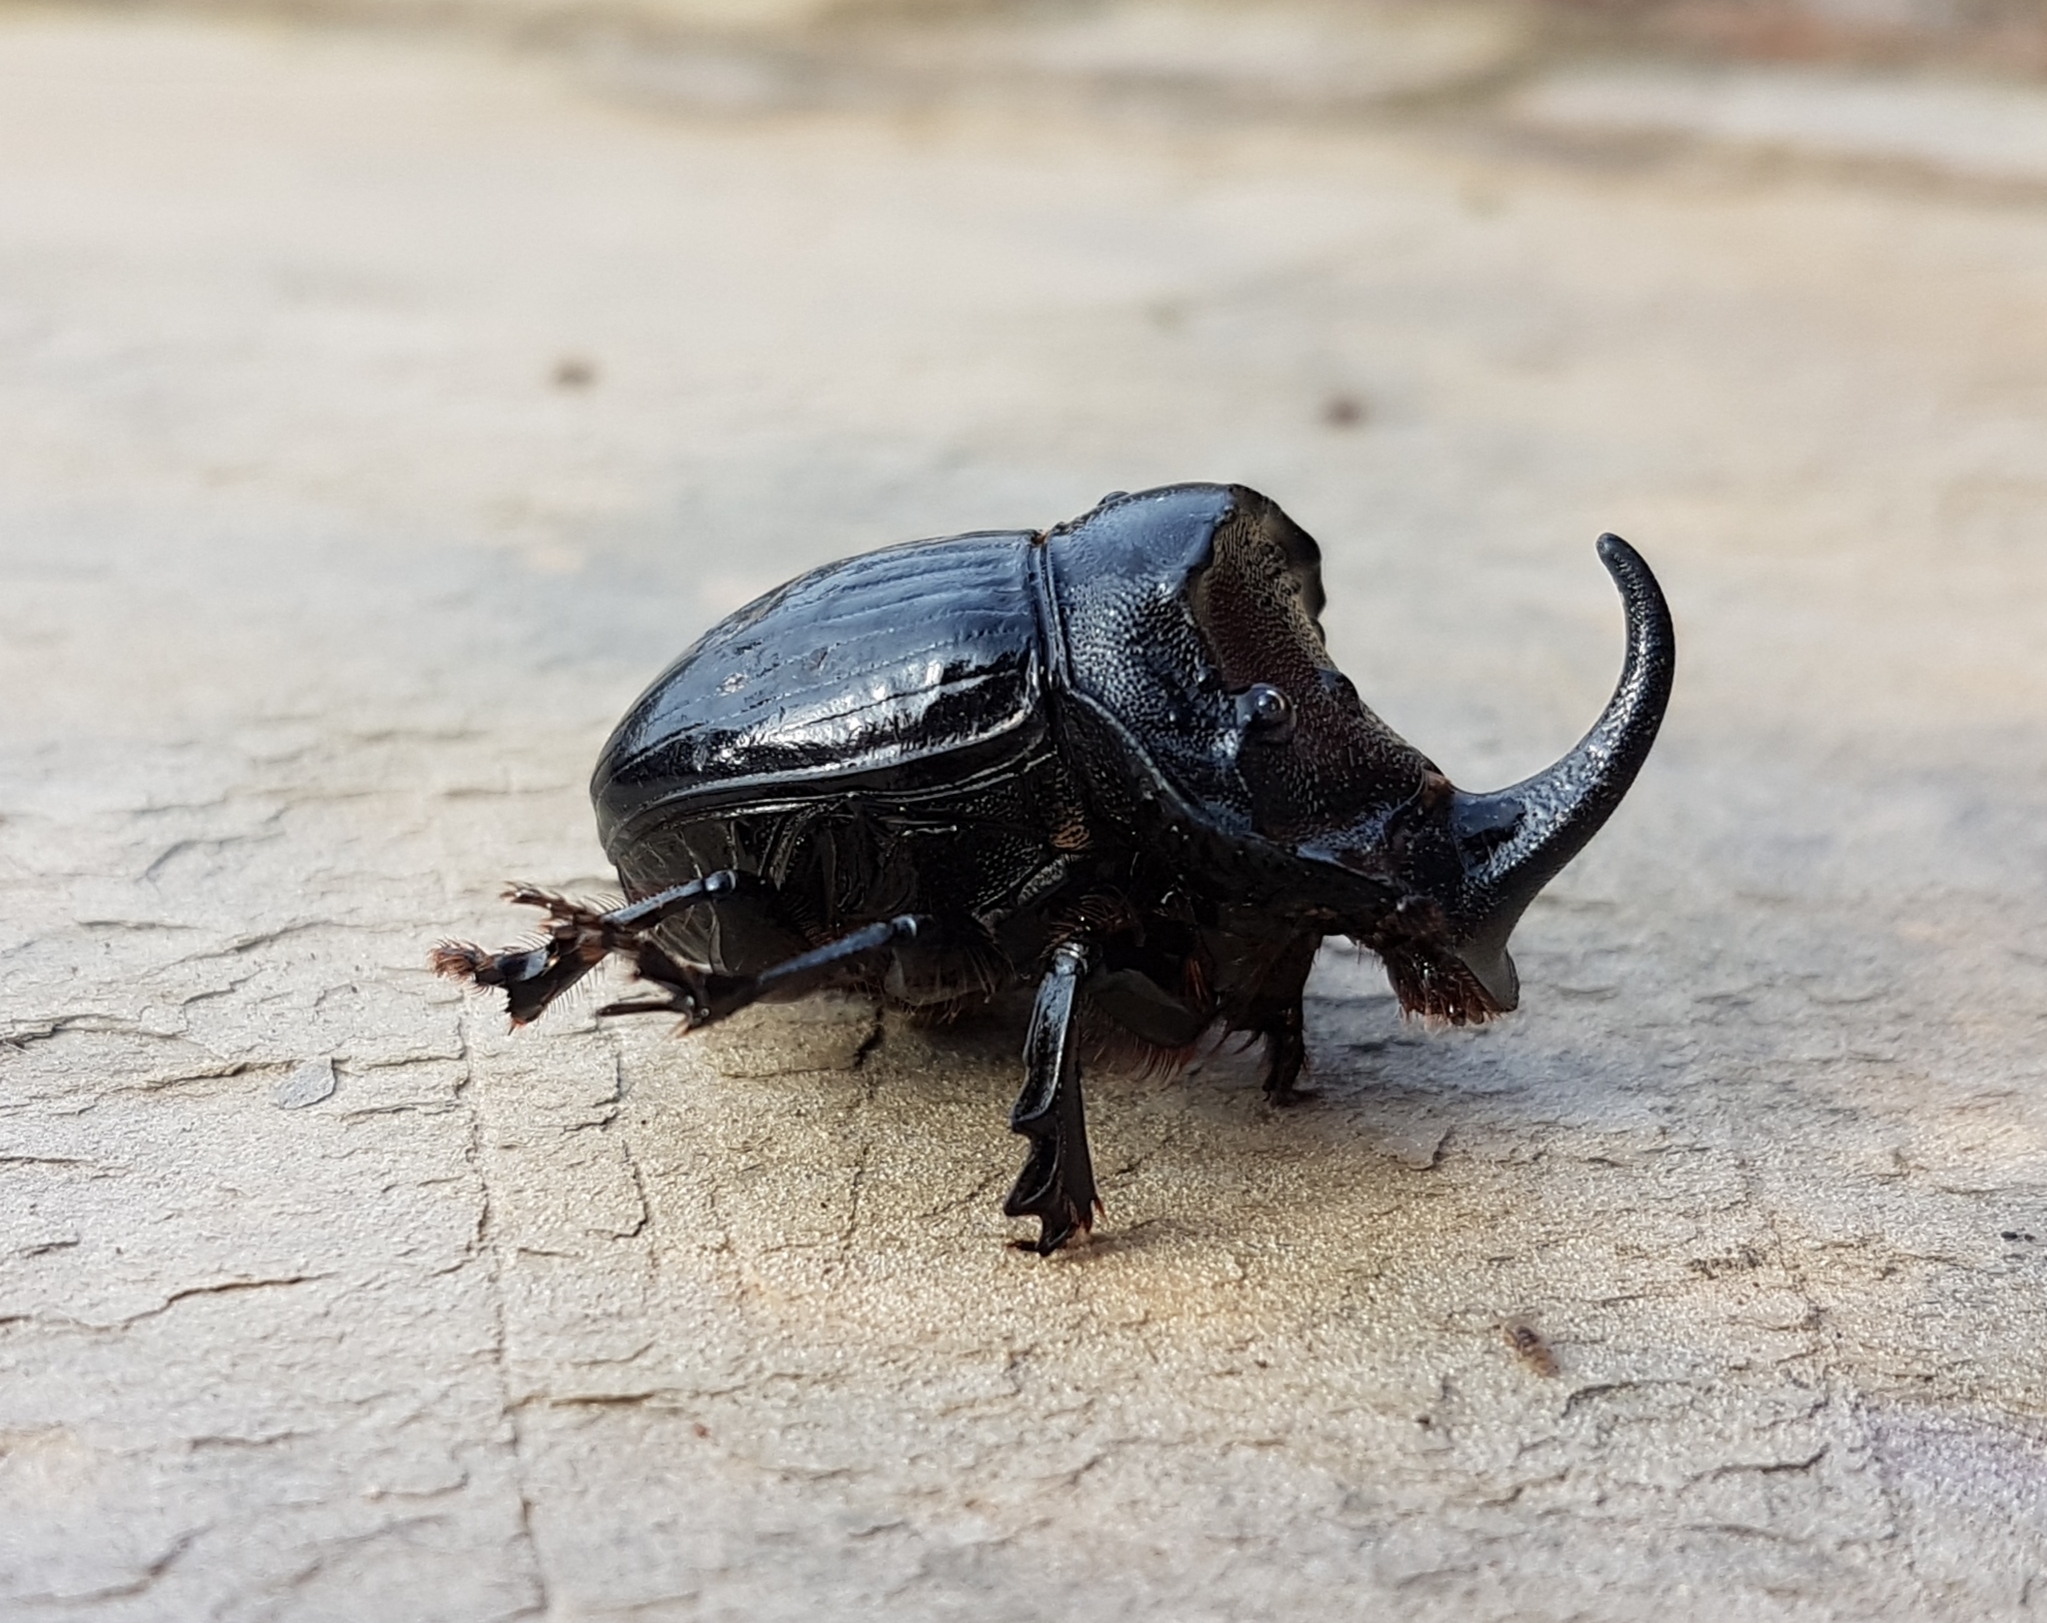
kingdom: Animalia
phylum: Arthropoda
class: Insecta
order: Coleoptera
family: Scarabaeidae
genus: Copris
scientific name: Copris hispanus
